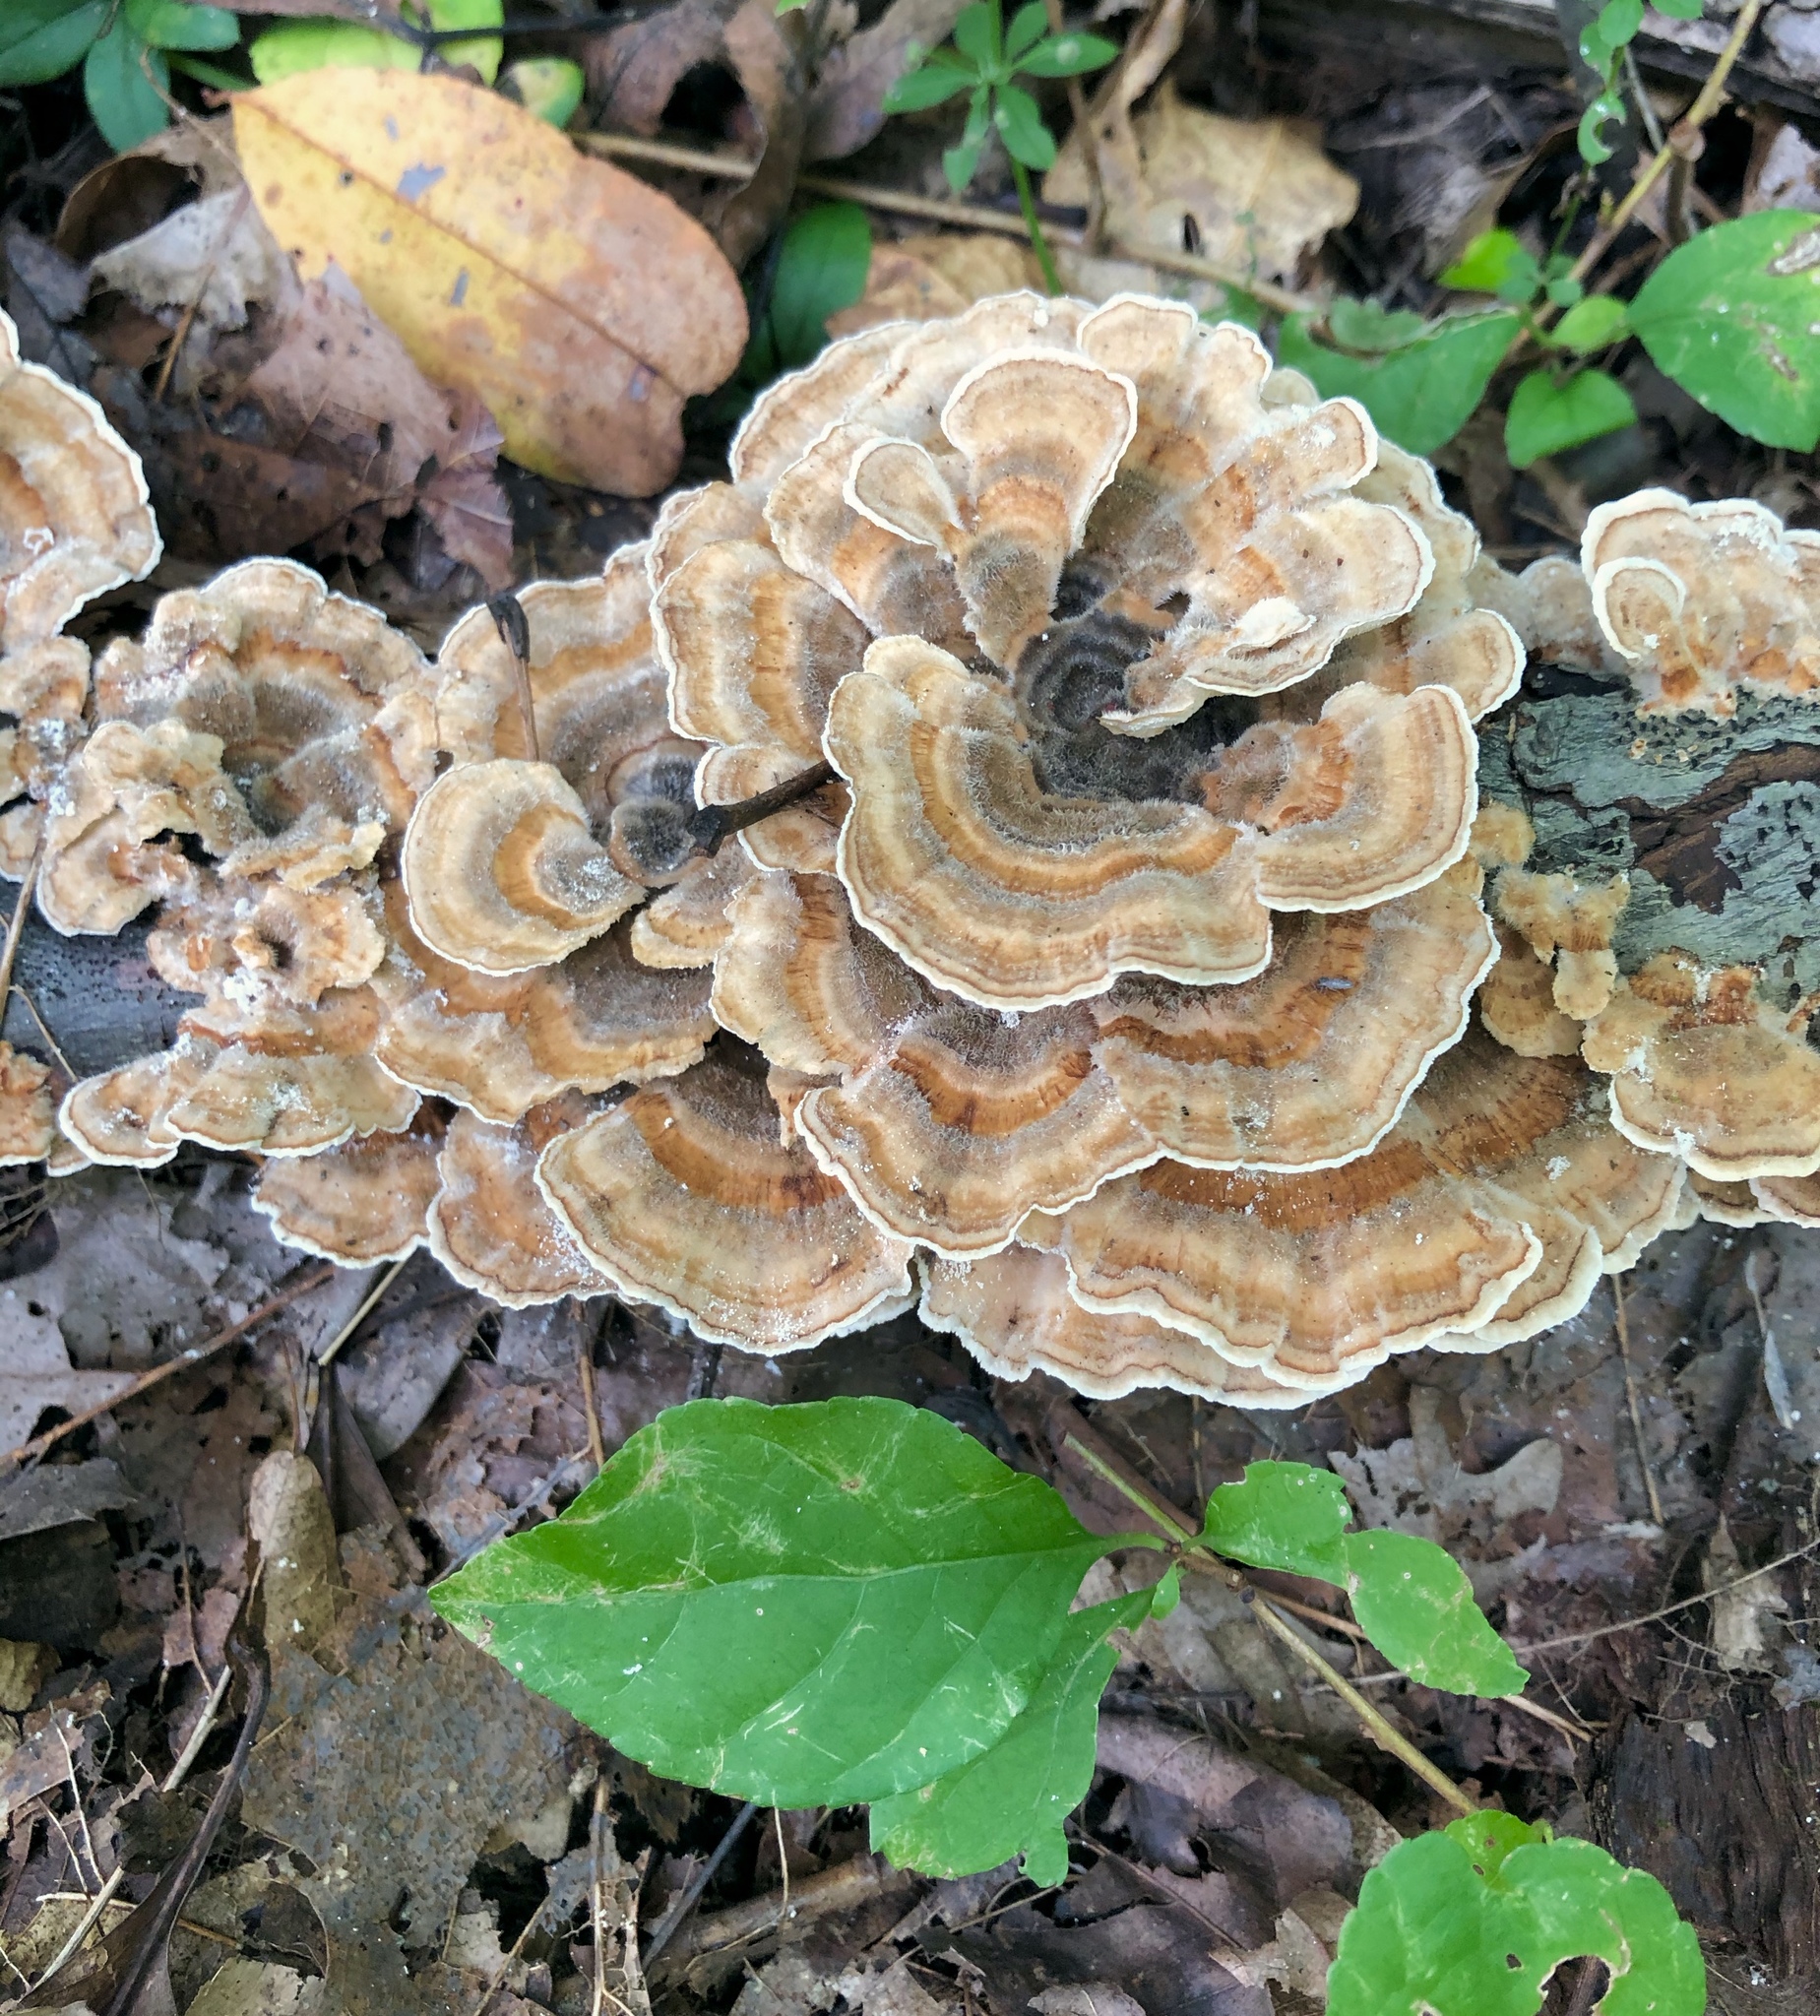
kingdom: Fungi
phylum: Basidiomycota
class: Agaricomycetes
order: Polyporales
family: Polyporaceae
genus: Trametes
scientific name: Trametes versicolor
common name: Turkeytail
